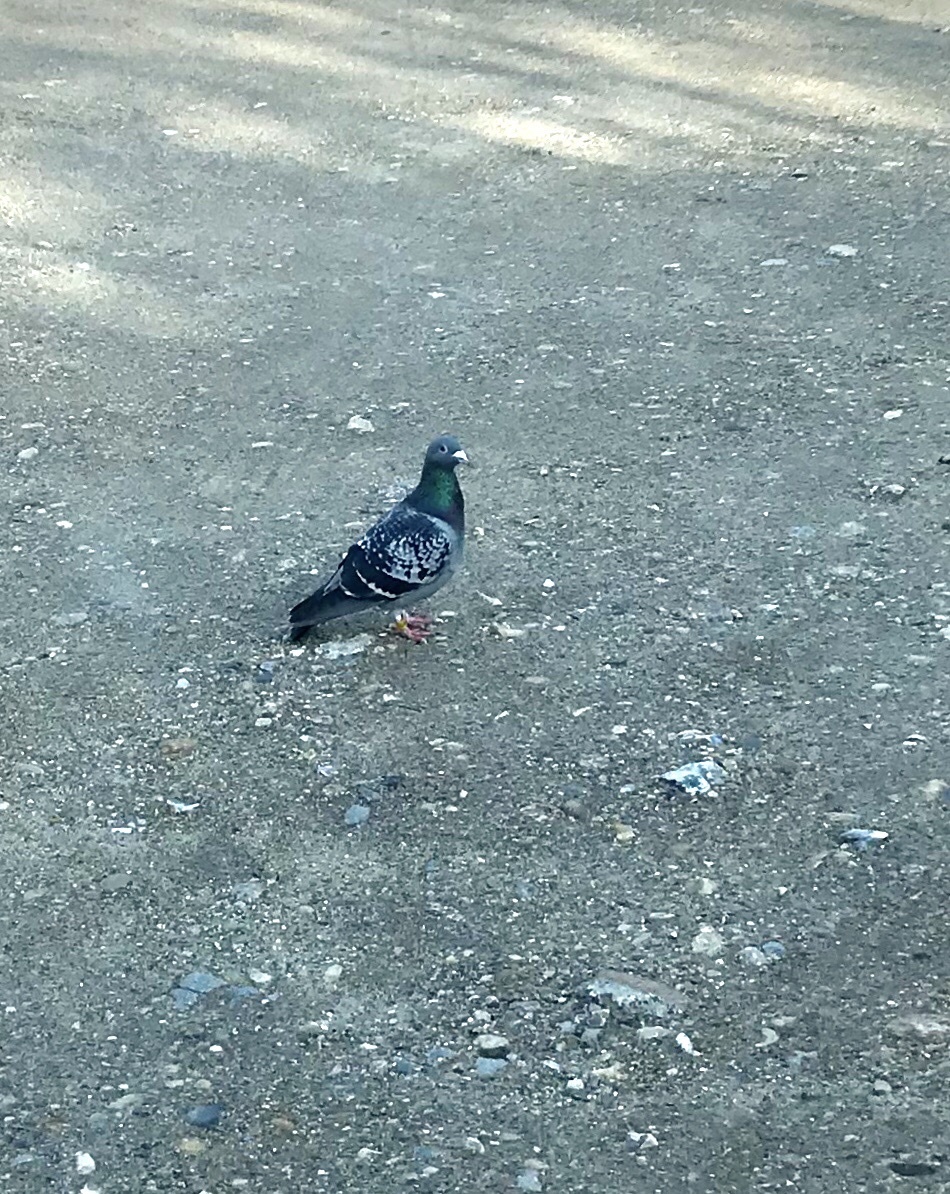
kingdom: Animalia
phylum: Chordata
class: Aves
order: Columbiformes
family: Columbidae
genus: Columba
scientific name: Columba livia
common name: Rock pigeon
